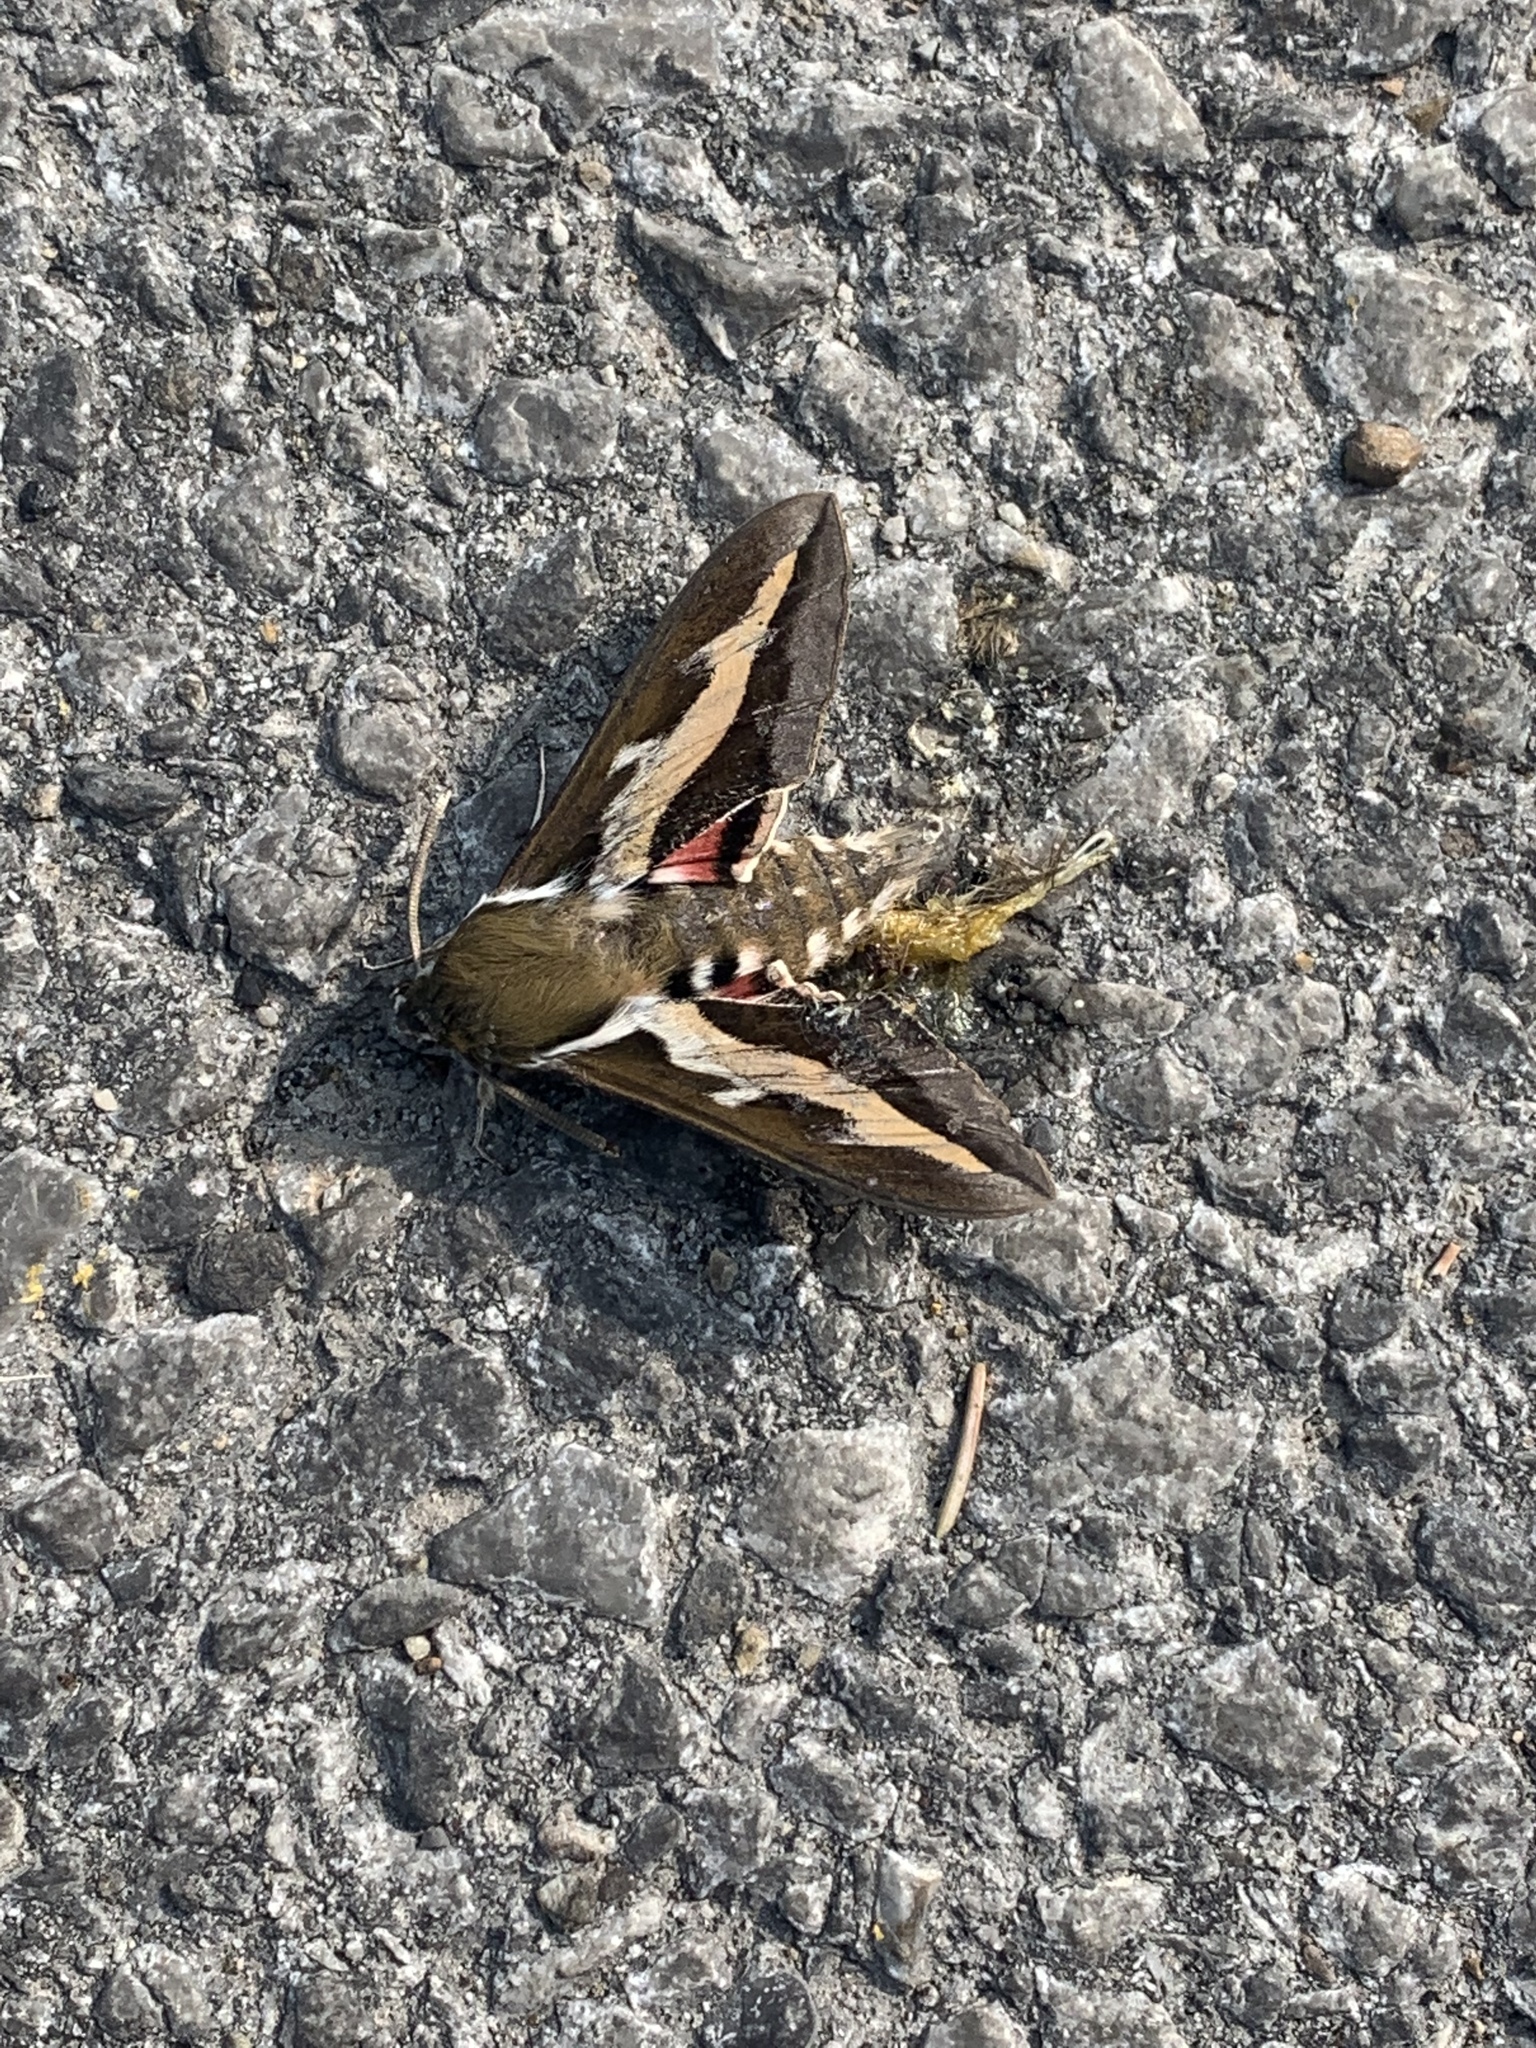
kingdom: Animalia
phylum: Arthropoda
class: Insecta
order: Lepidoptera
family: Sphingidae
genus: Hyles
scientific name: Hyles gallii
